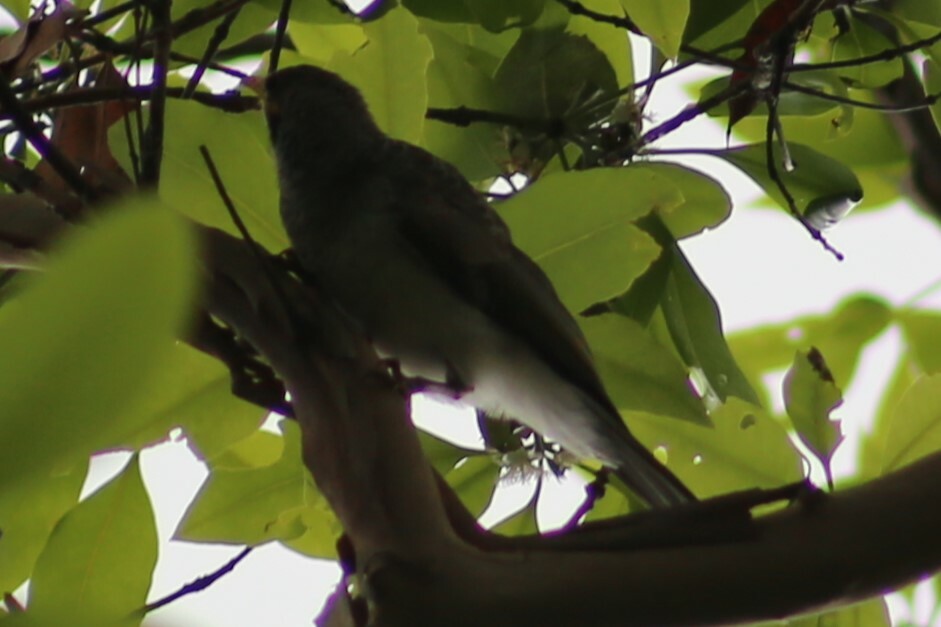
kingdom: Animalia
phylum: Chordata
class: Aves
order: Passeriformes
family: Meliphagidae
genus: Manorina
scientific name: Manorina melanocephala
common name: Noisy miner
